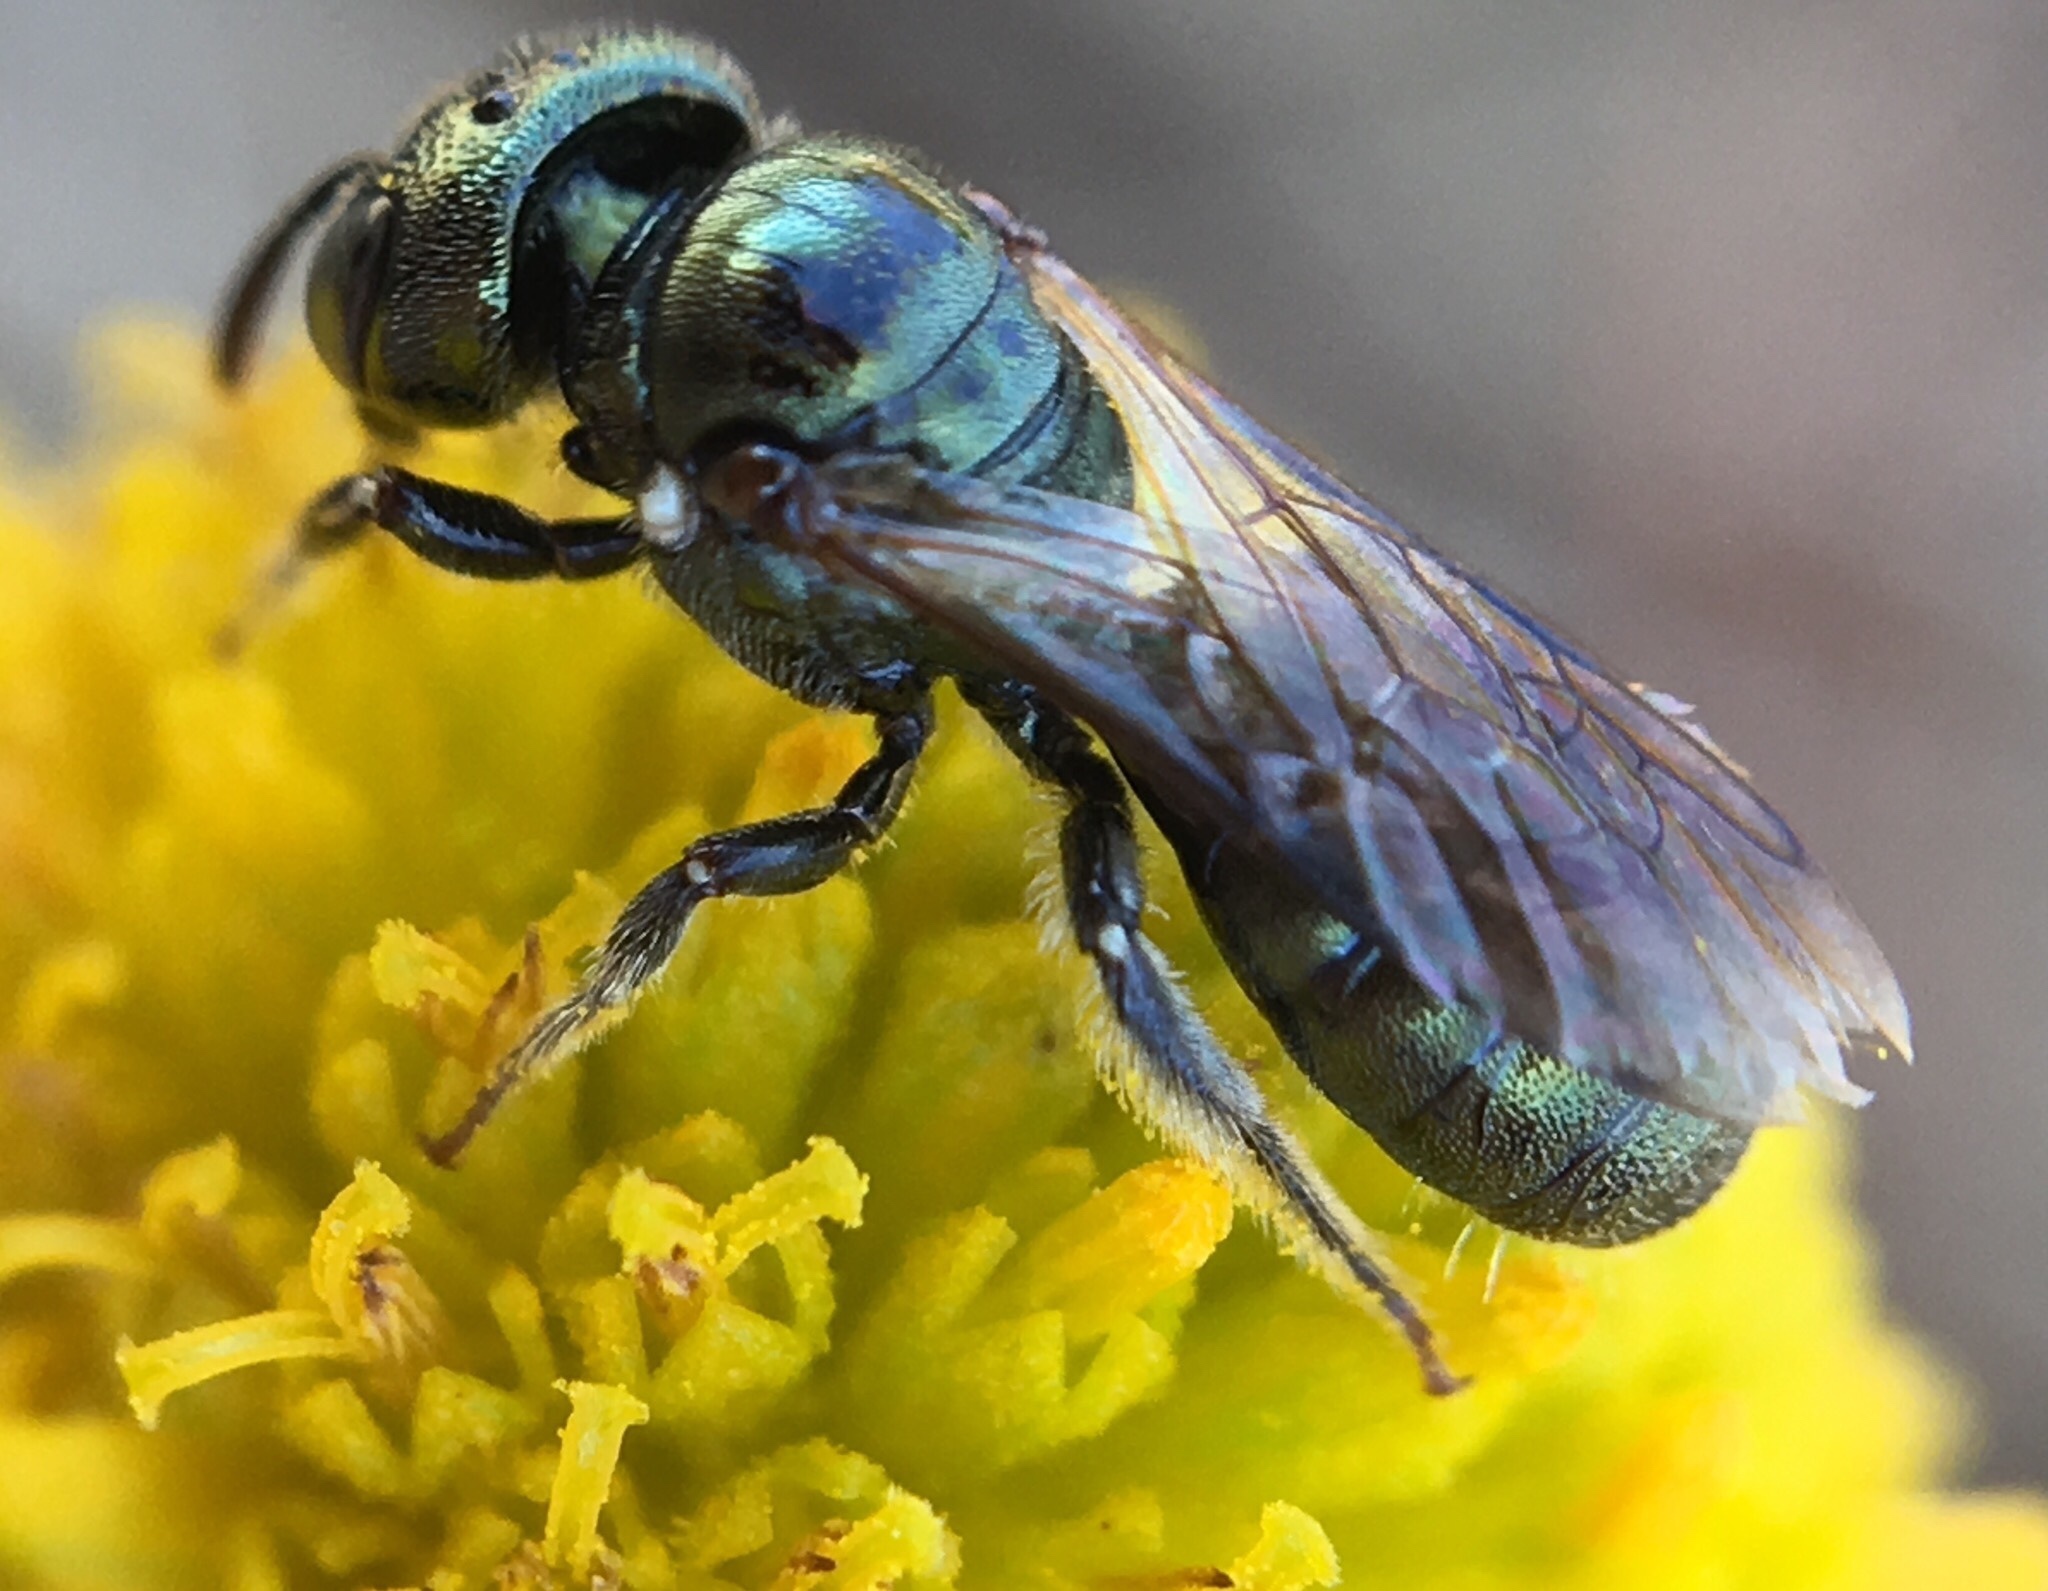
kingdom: Animalia
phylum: Arthropoda
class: Insecta
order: Hymenoptera
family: Apidae
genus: Ceratina
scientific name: Ceratina strenua
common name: Nimble carpenter bee
